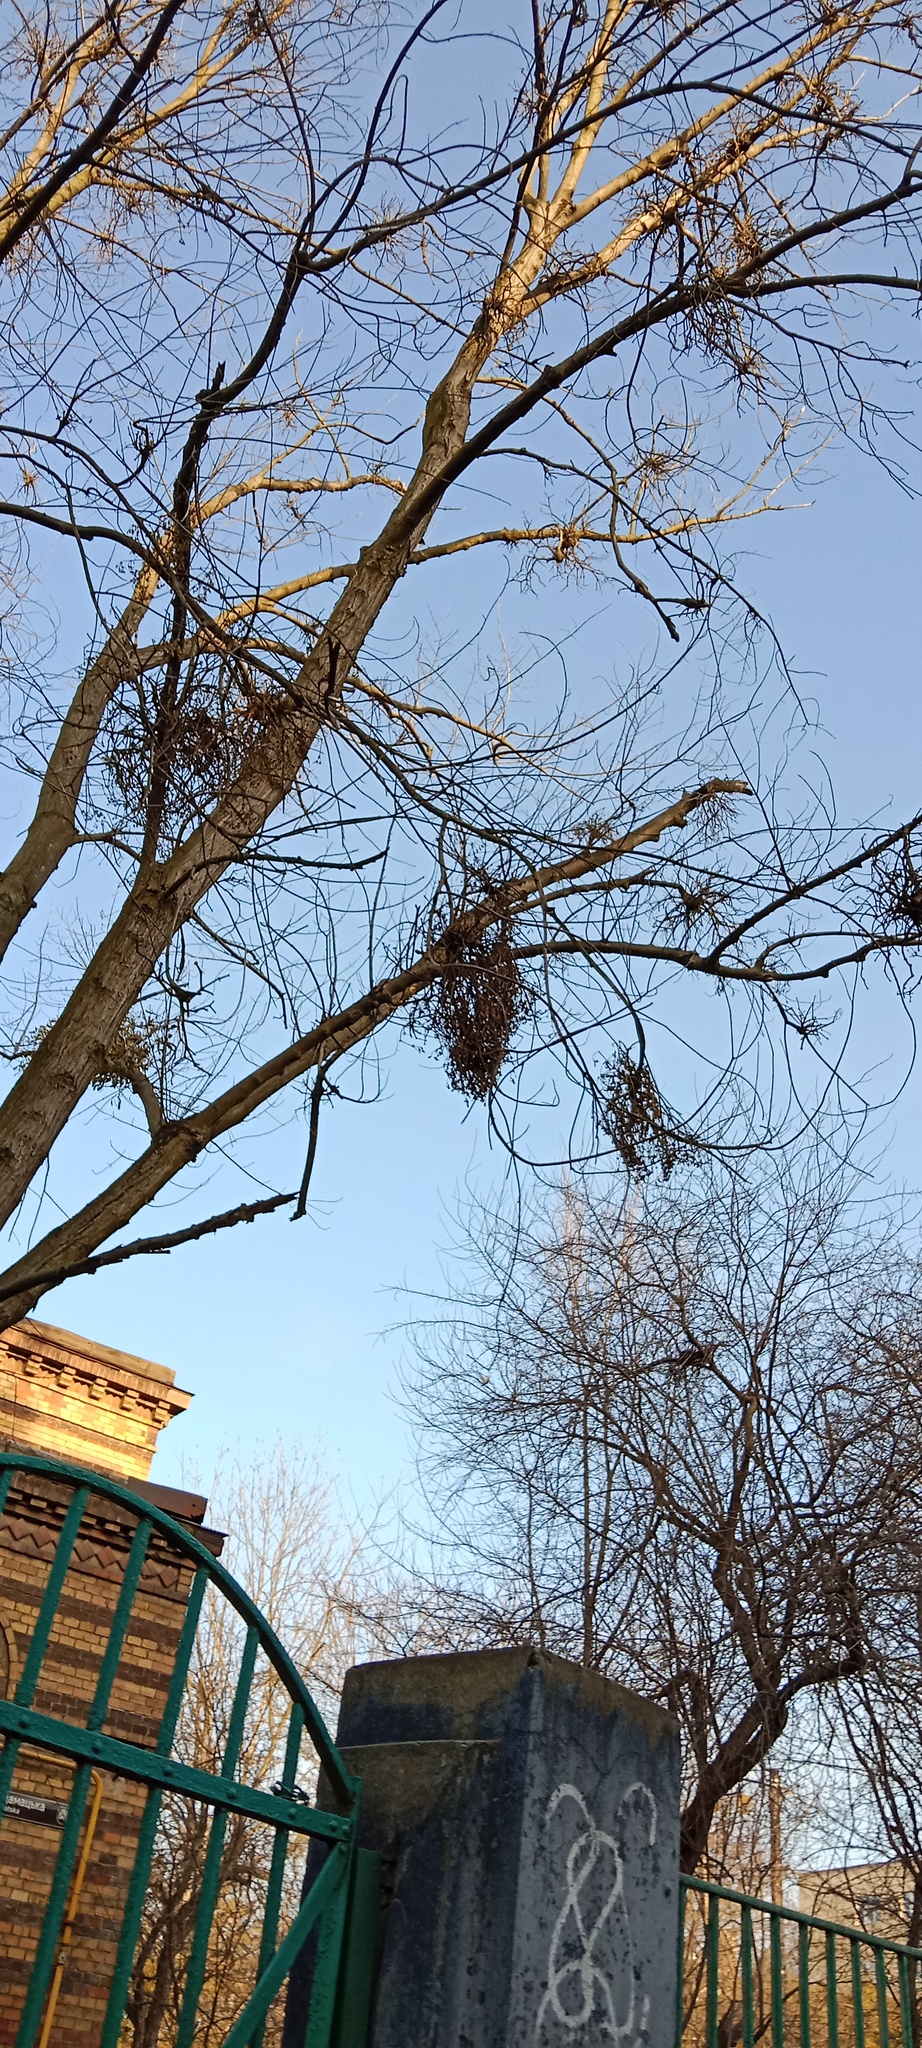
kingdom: Plantae
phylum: Tracheophyta
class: Magnoliopsida
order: Santalales
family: Viscaceae
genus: Viscum
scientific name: Viscum album
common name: Mistletoe
